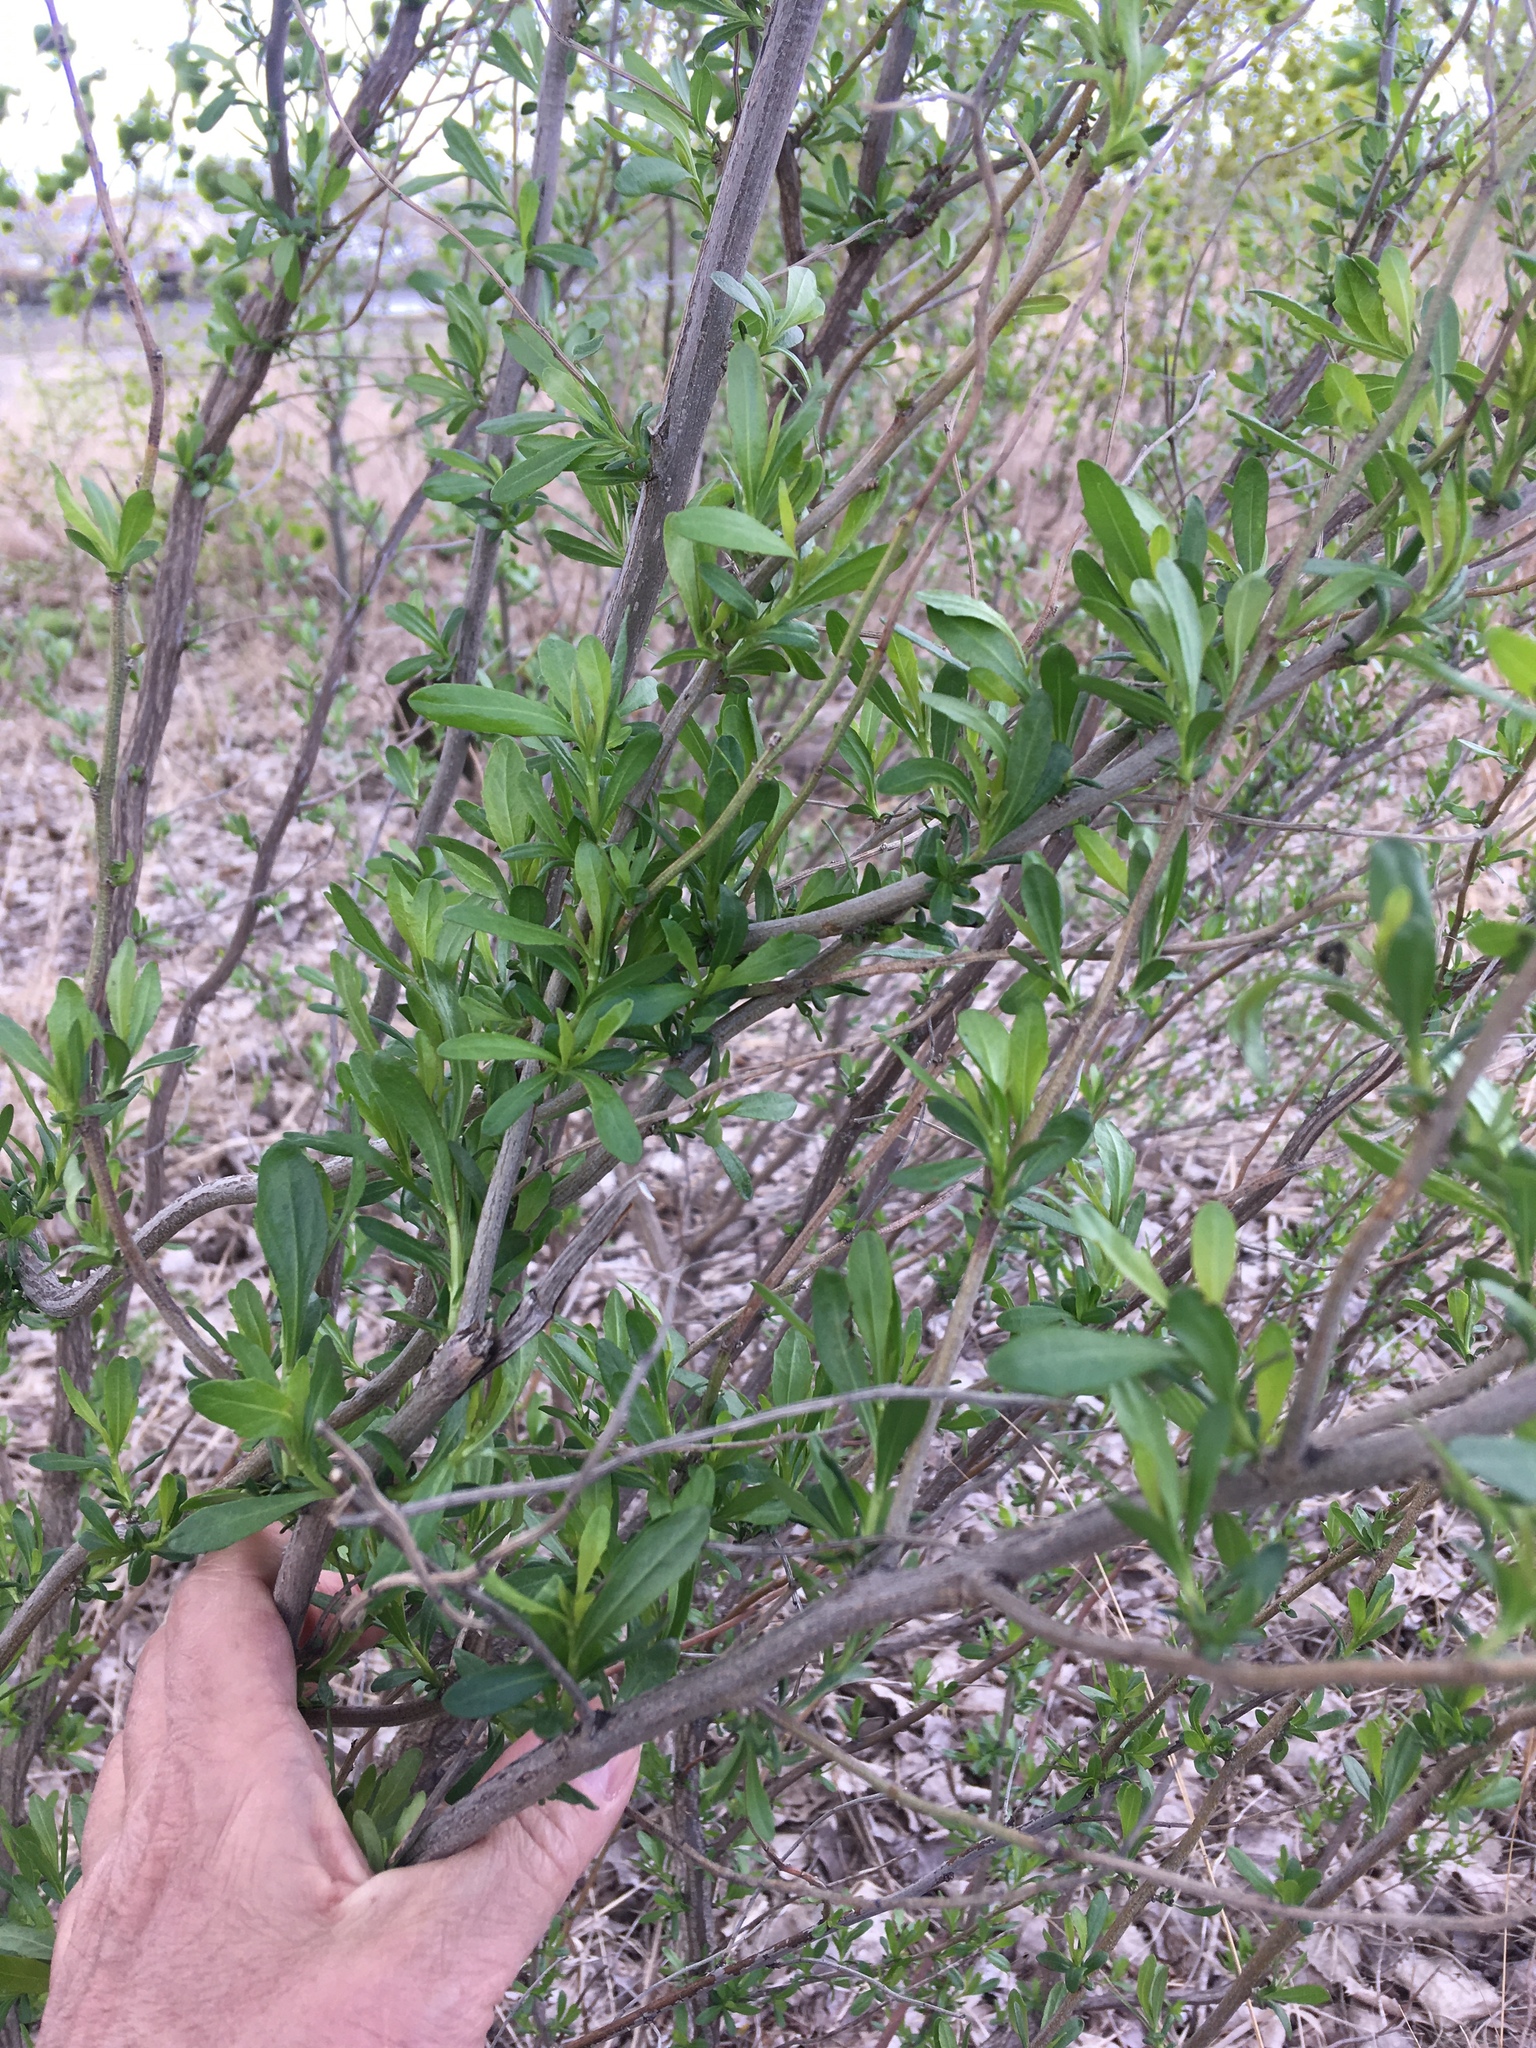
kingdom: Plantae
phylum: Tracheophyta
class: Magnoliopsida
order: Asterales
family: Asteraceae
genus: Baccharis
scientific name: Baccharis halimifolia
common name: Eastern baccharis
